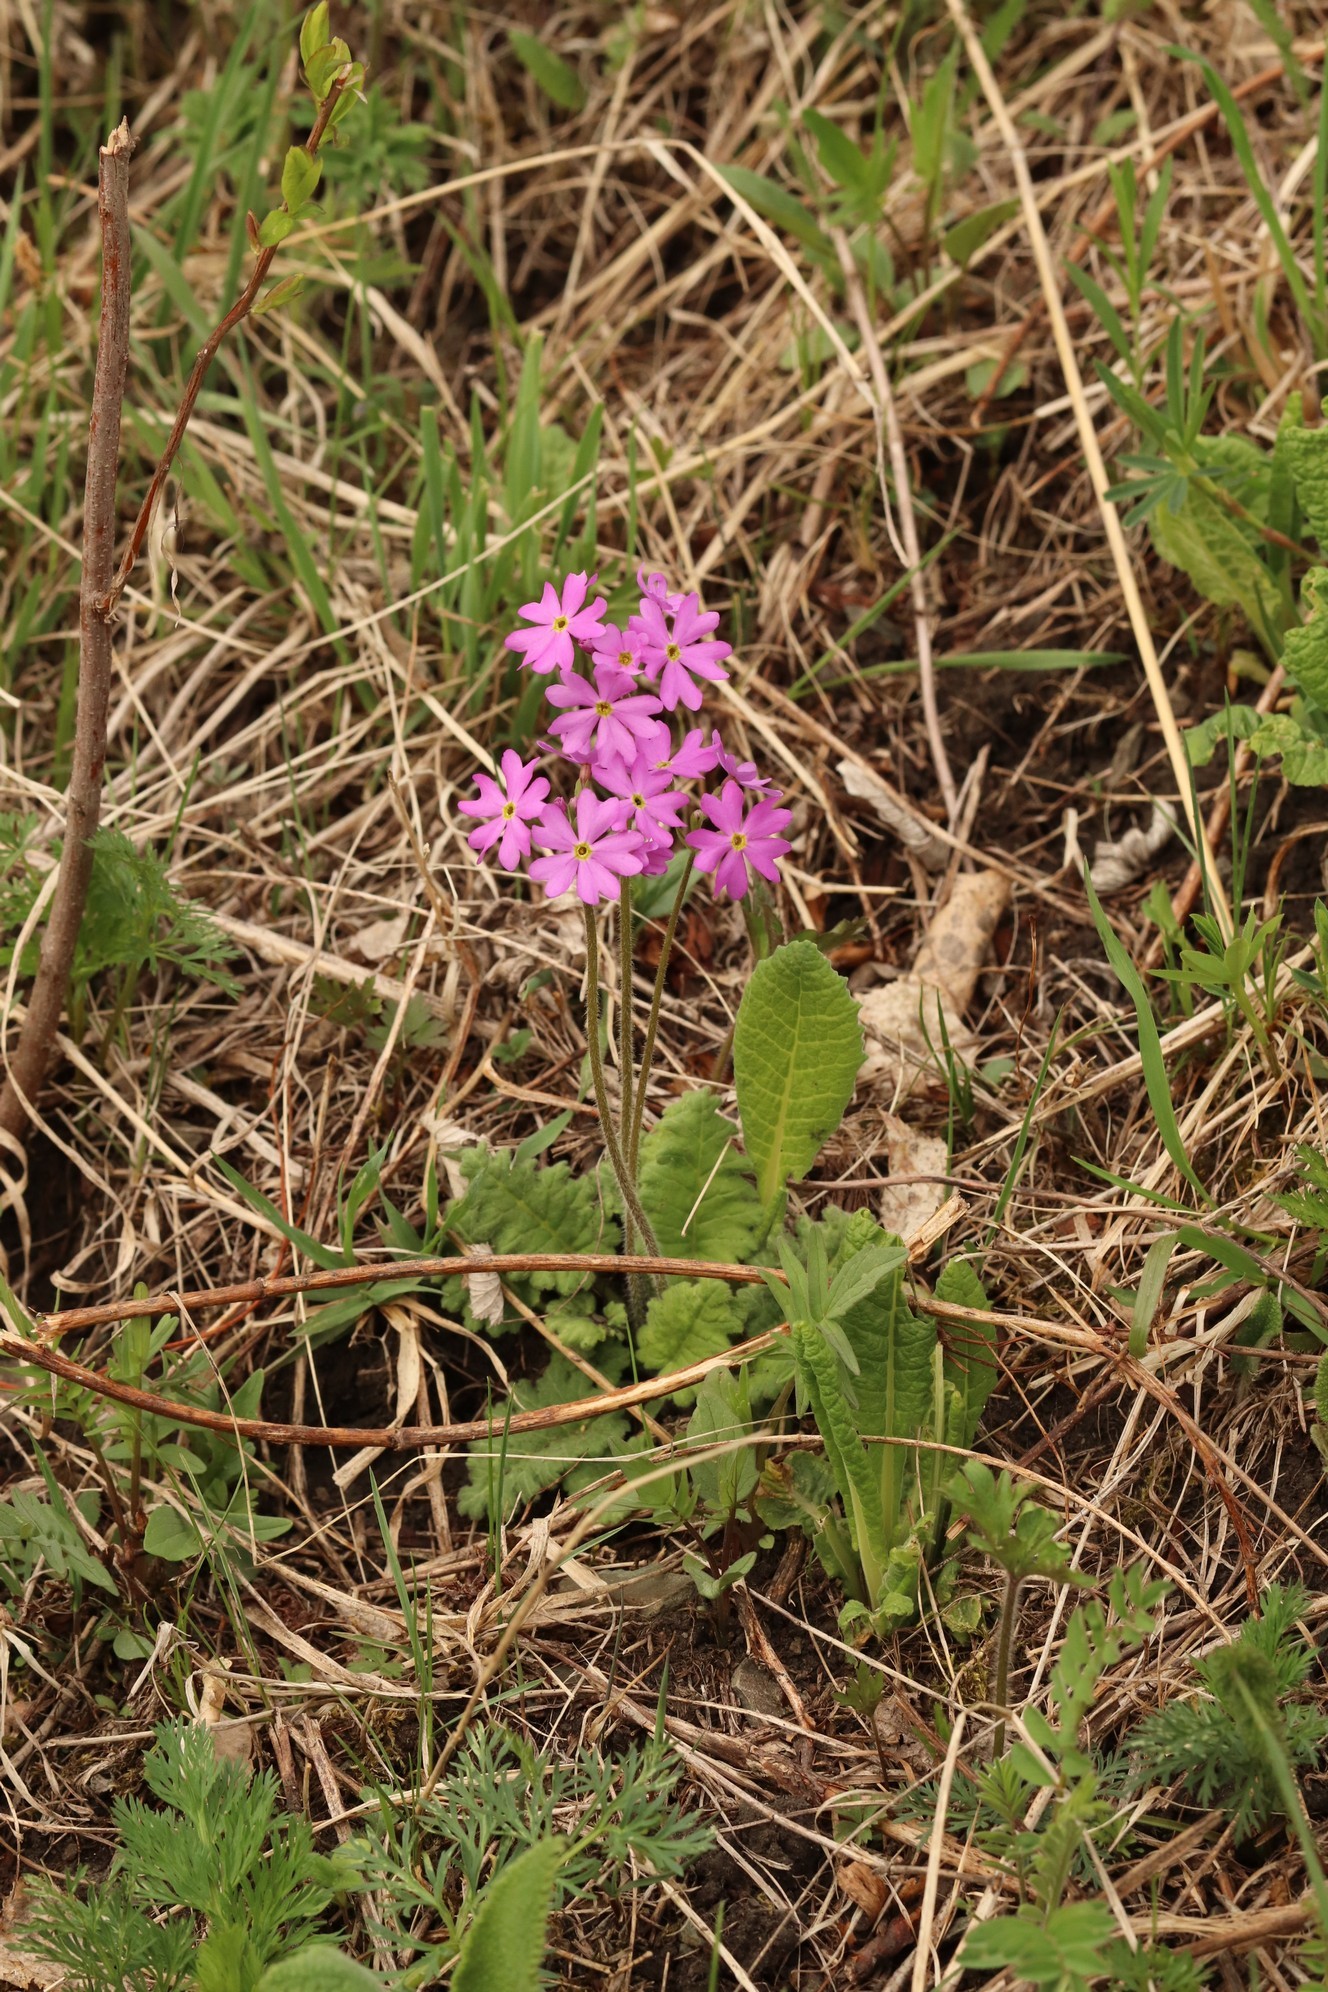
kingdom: Plantae
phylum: Tracheophyta
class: Magnoliopsida
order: Ericales
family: Primulaceae
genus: Primula
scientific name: Primula cortusoides
